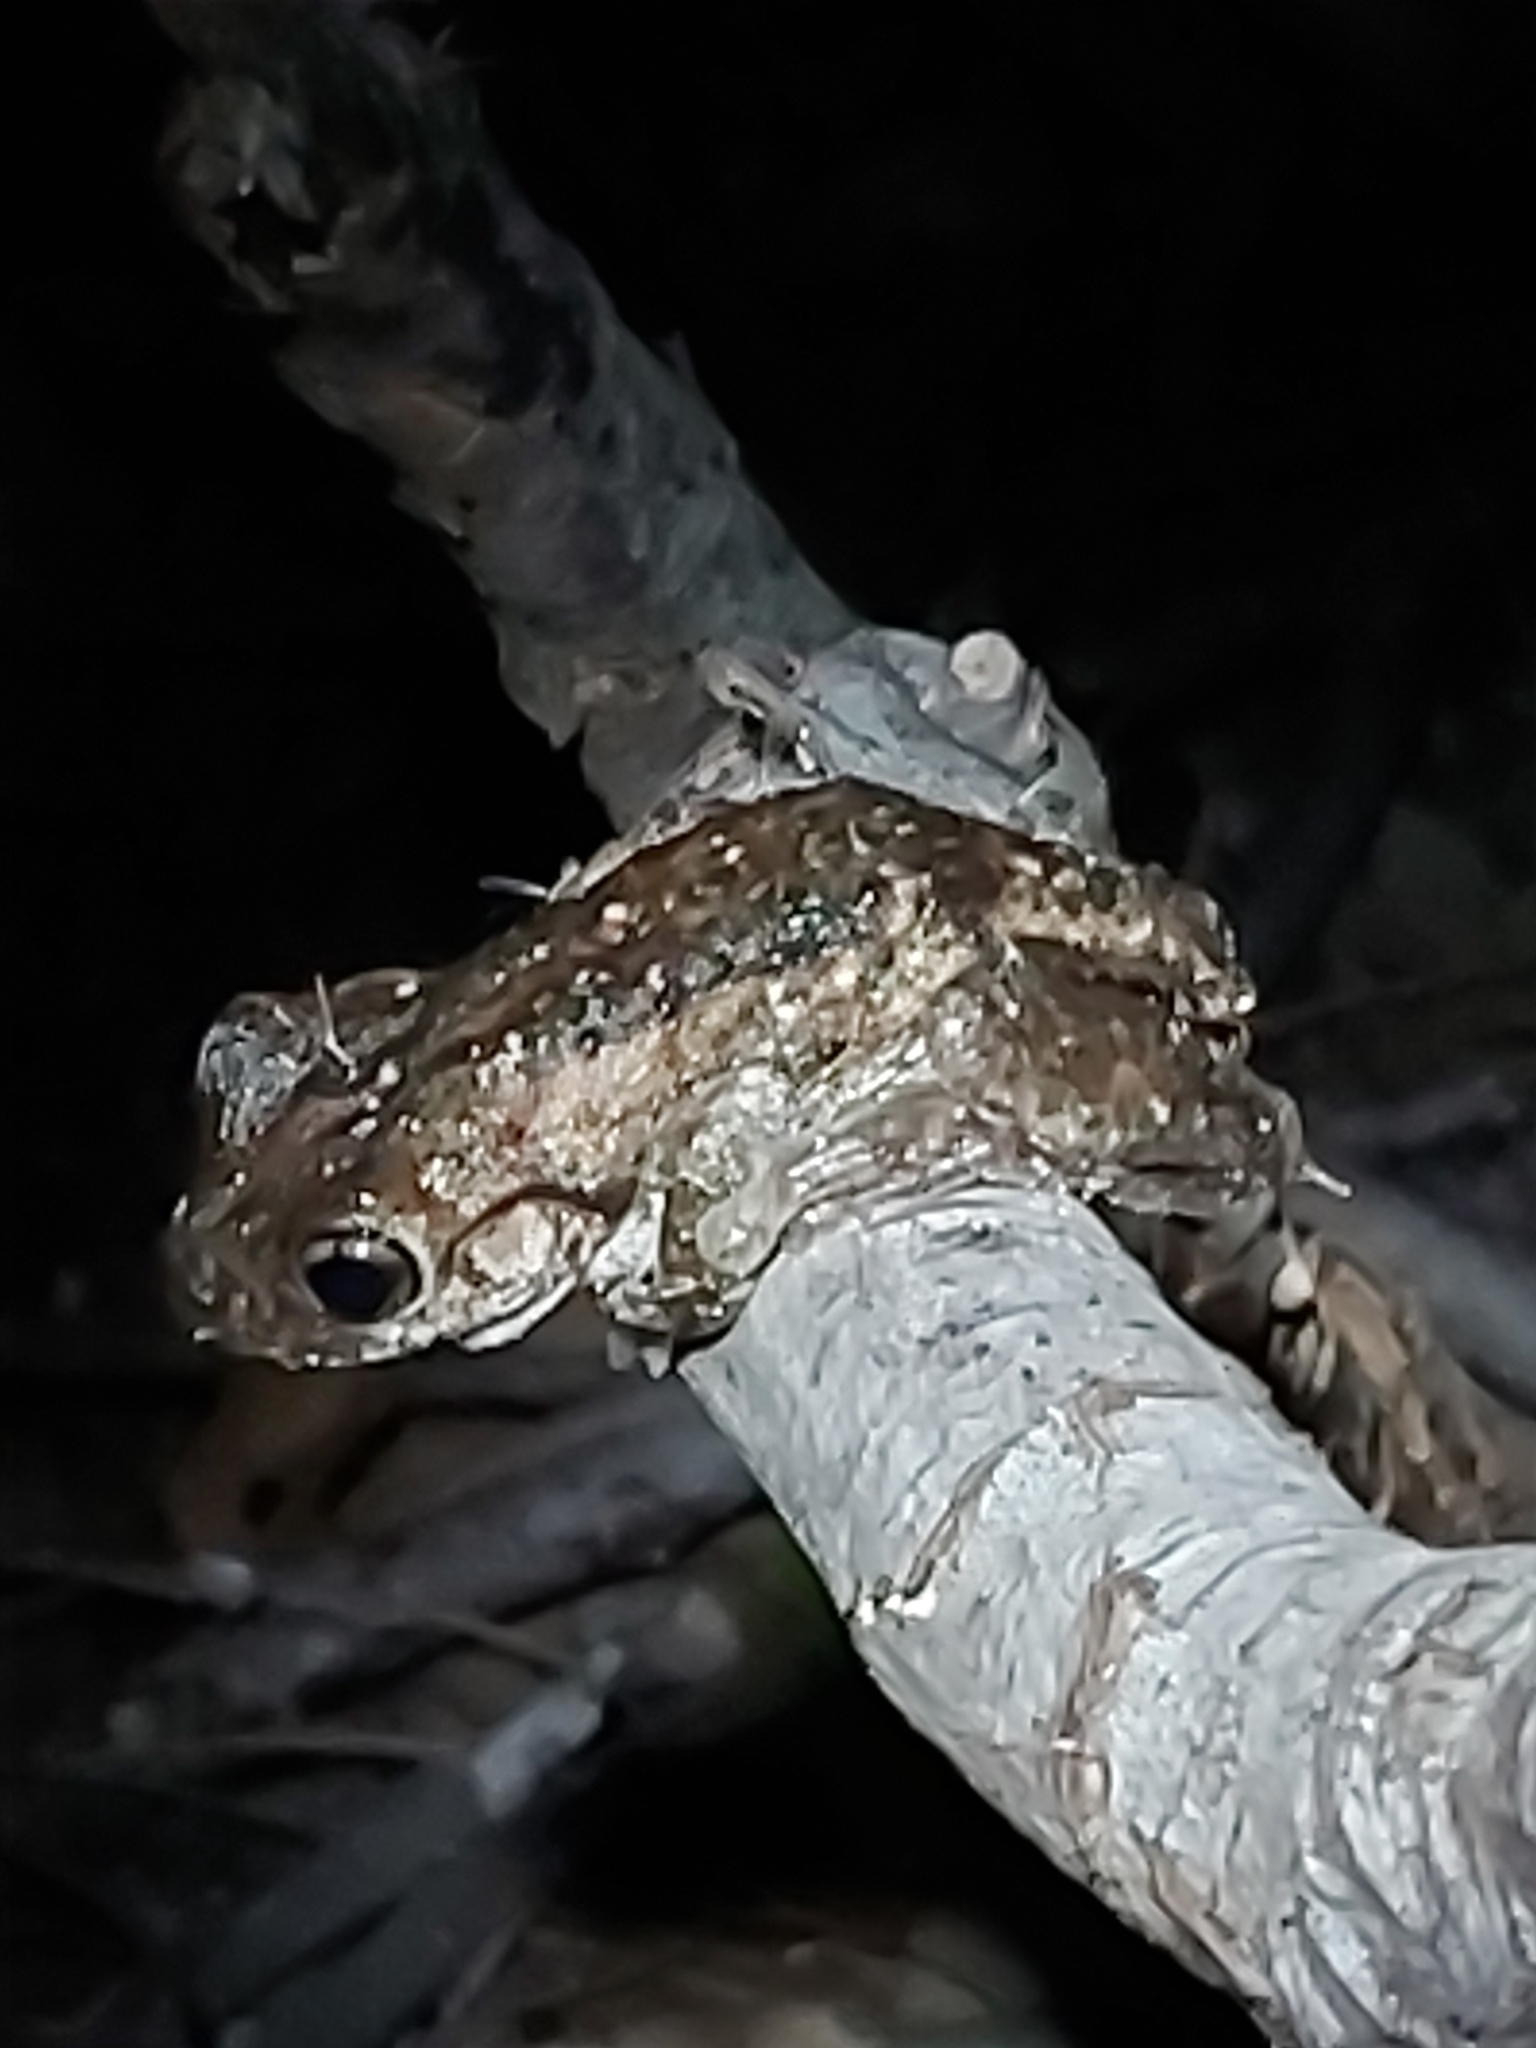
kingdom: Animalia
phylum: Chordata
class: Amphibia
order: Anura
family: Pelodryadidae
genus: Litoria
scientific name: Litoria peronii
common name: Emerald spotted treefrog
